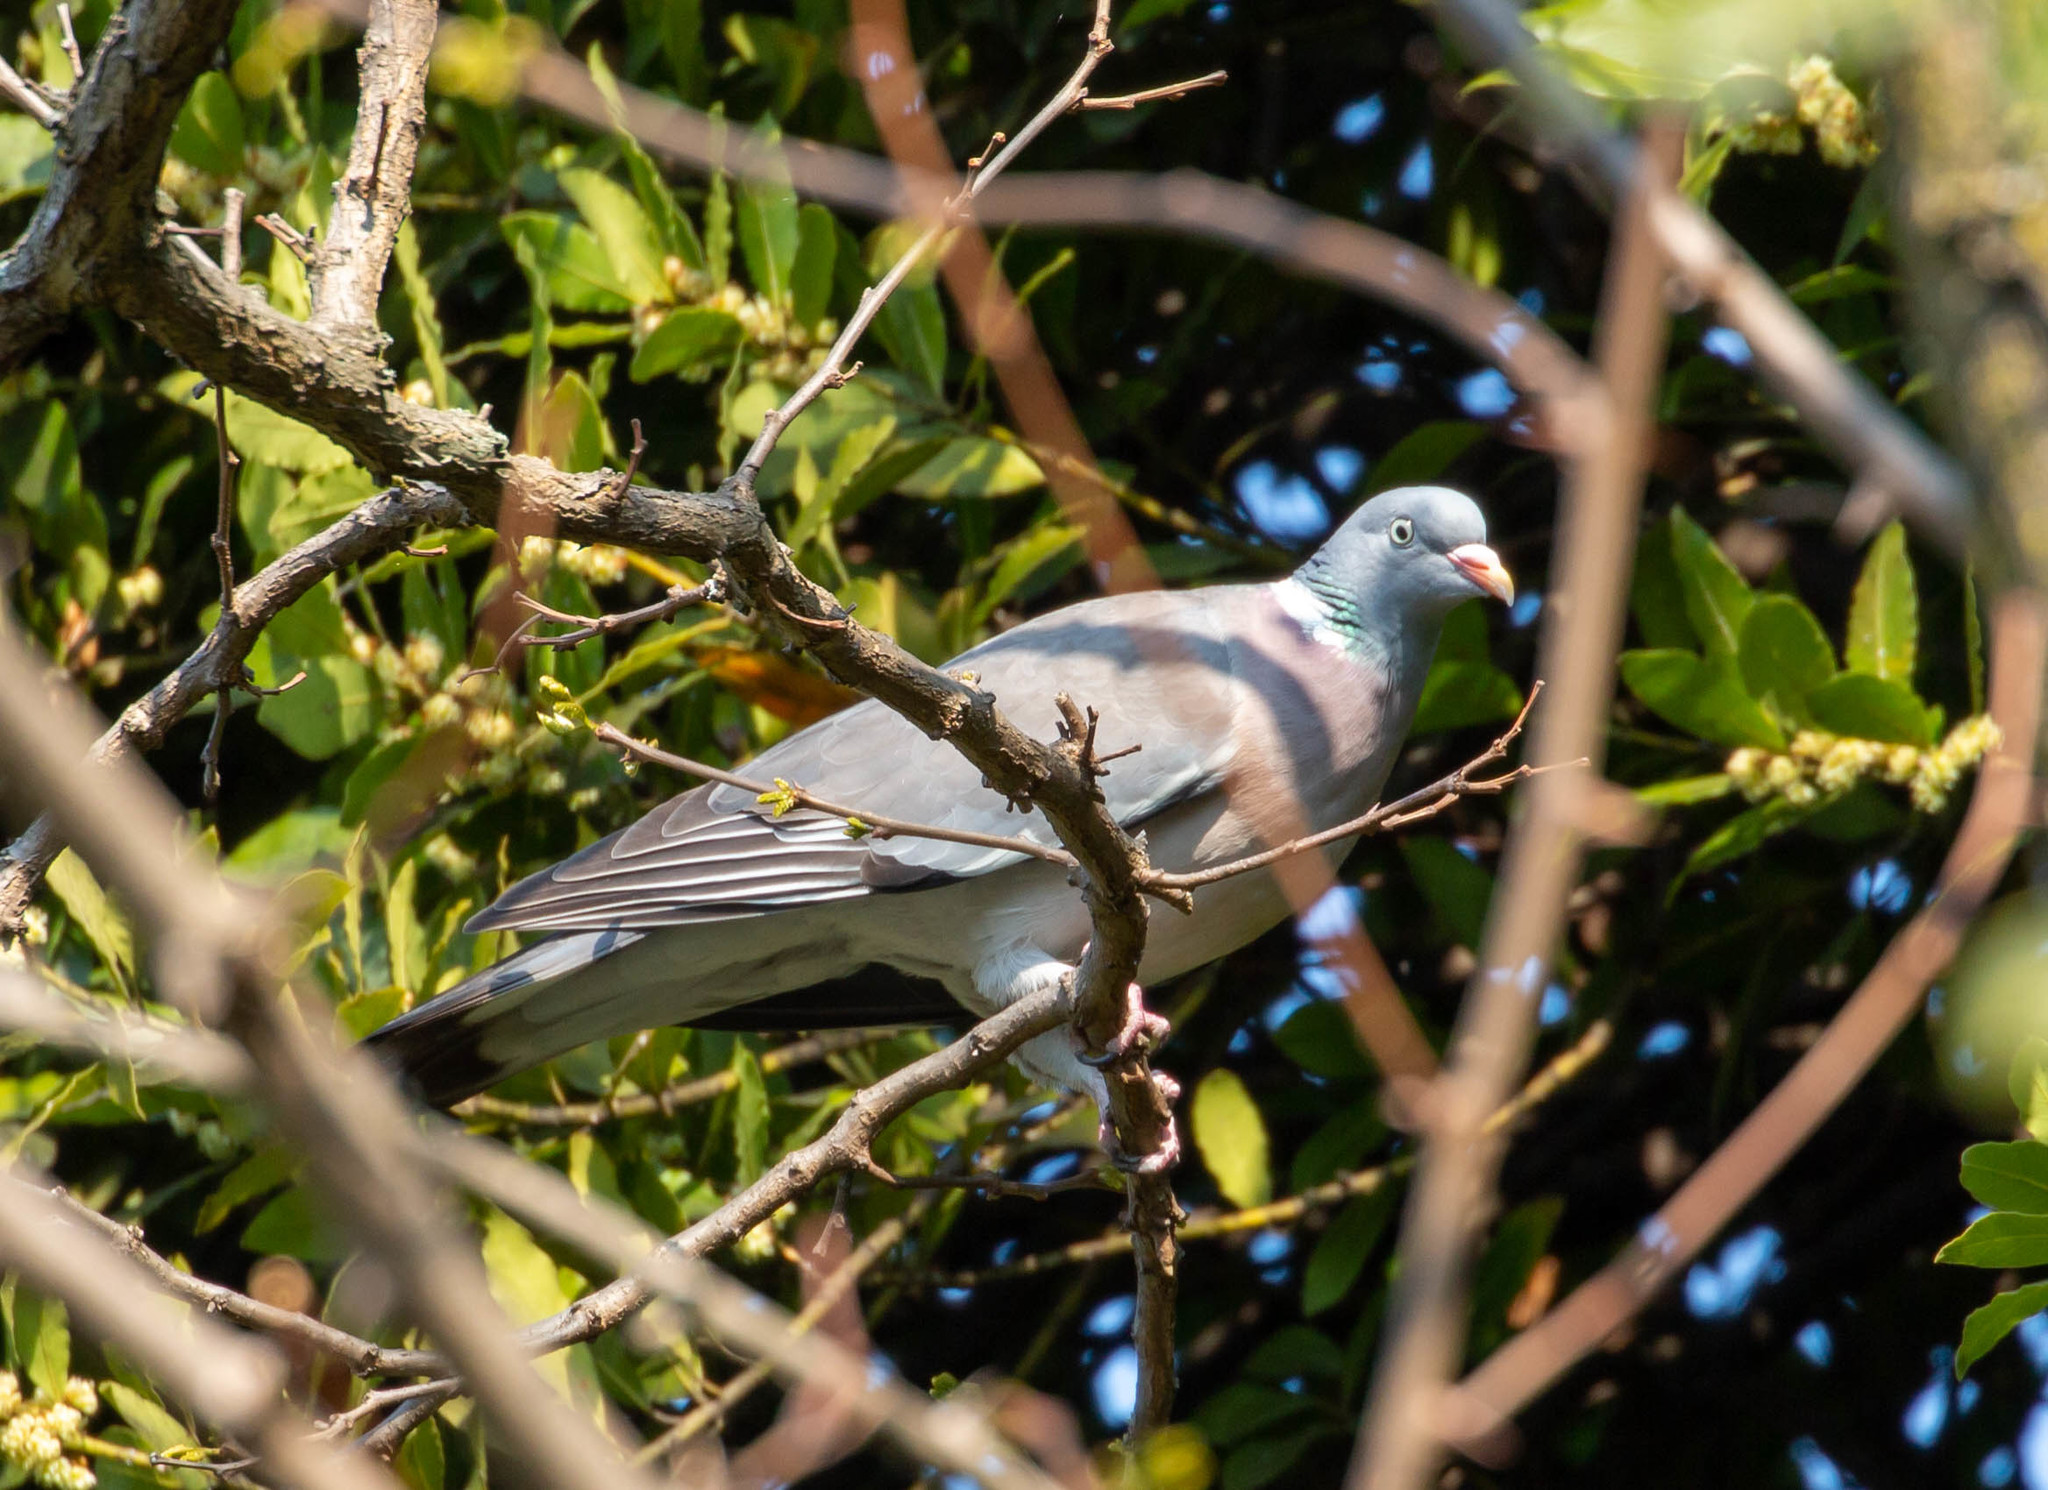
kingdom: Animalia
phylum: Chordata
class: Aves
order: Columbiformes
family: Columbidae
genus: Columba
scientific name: Columba palumbus
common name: Common wood pigeon
